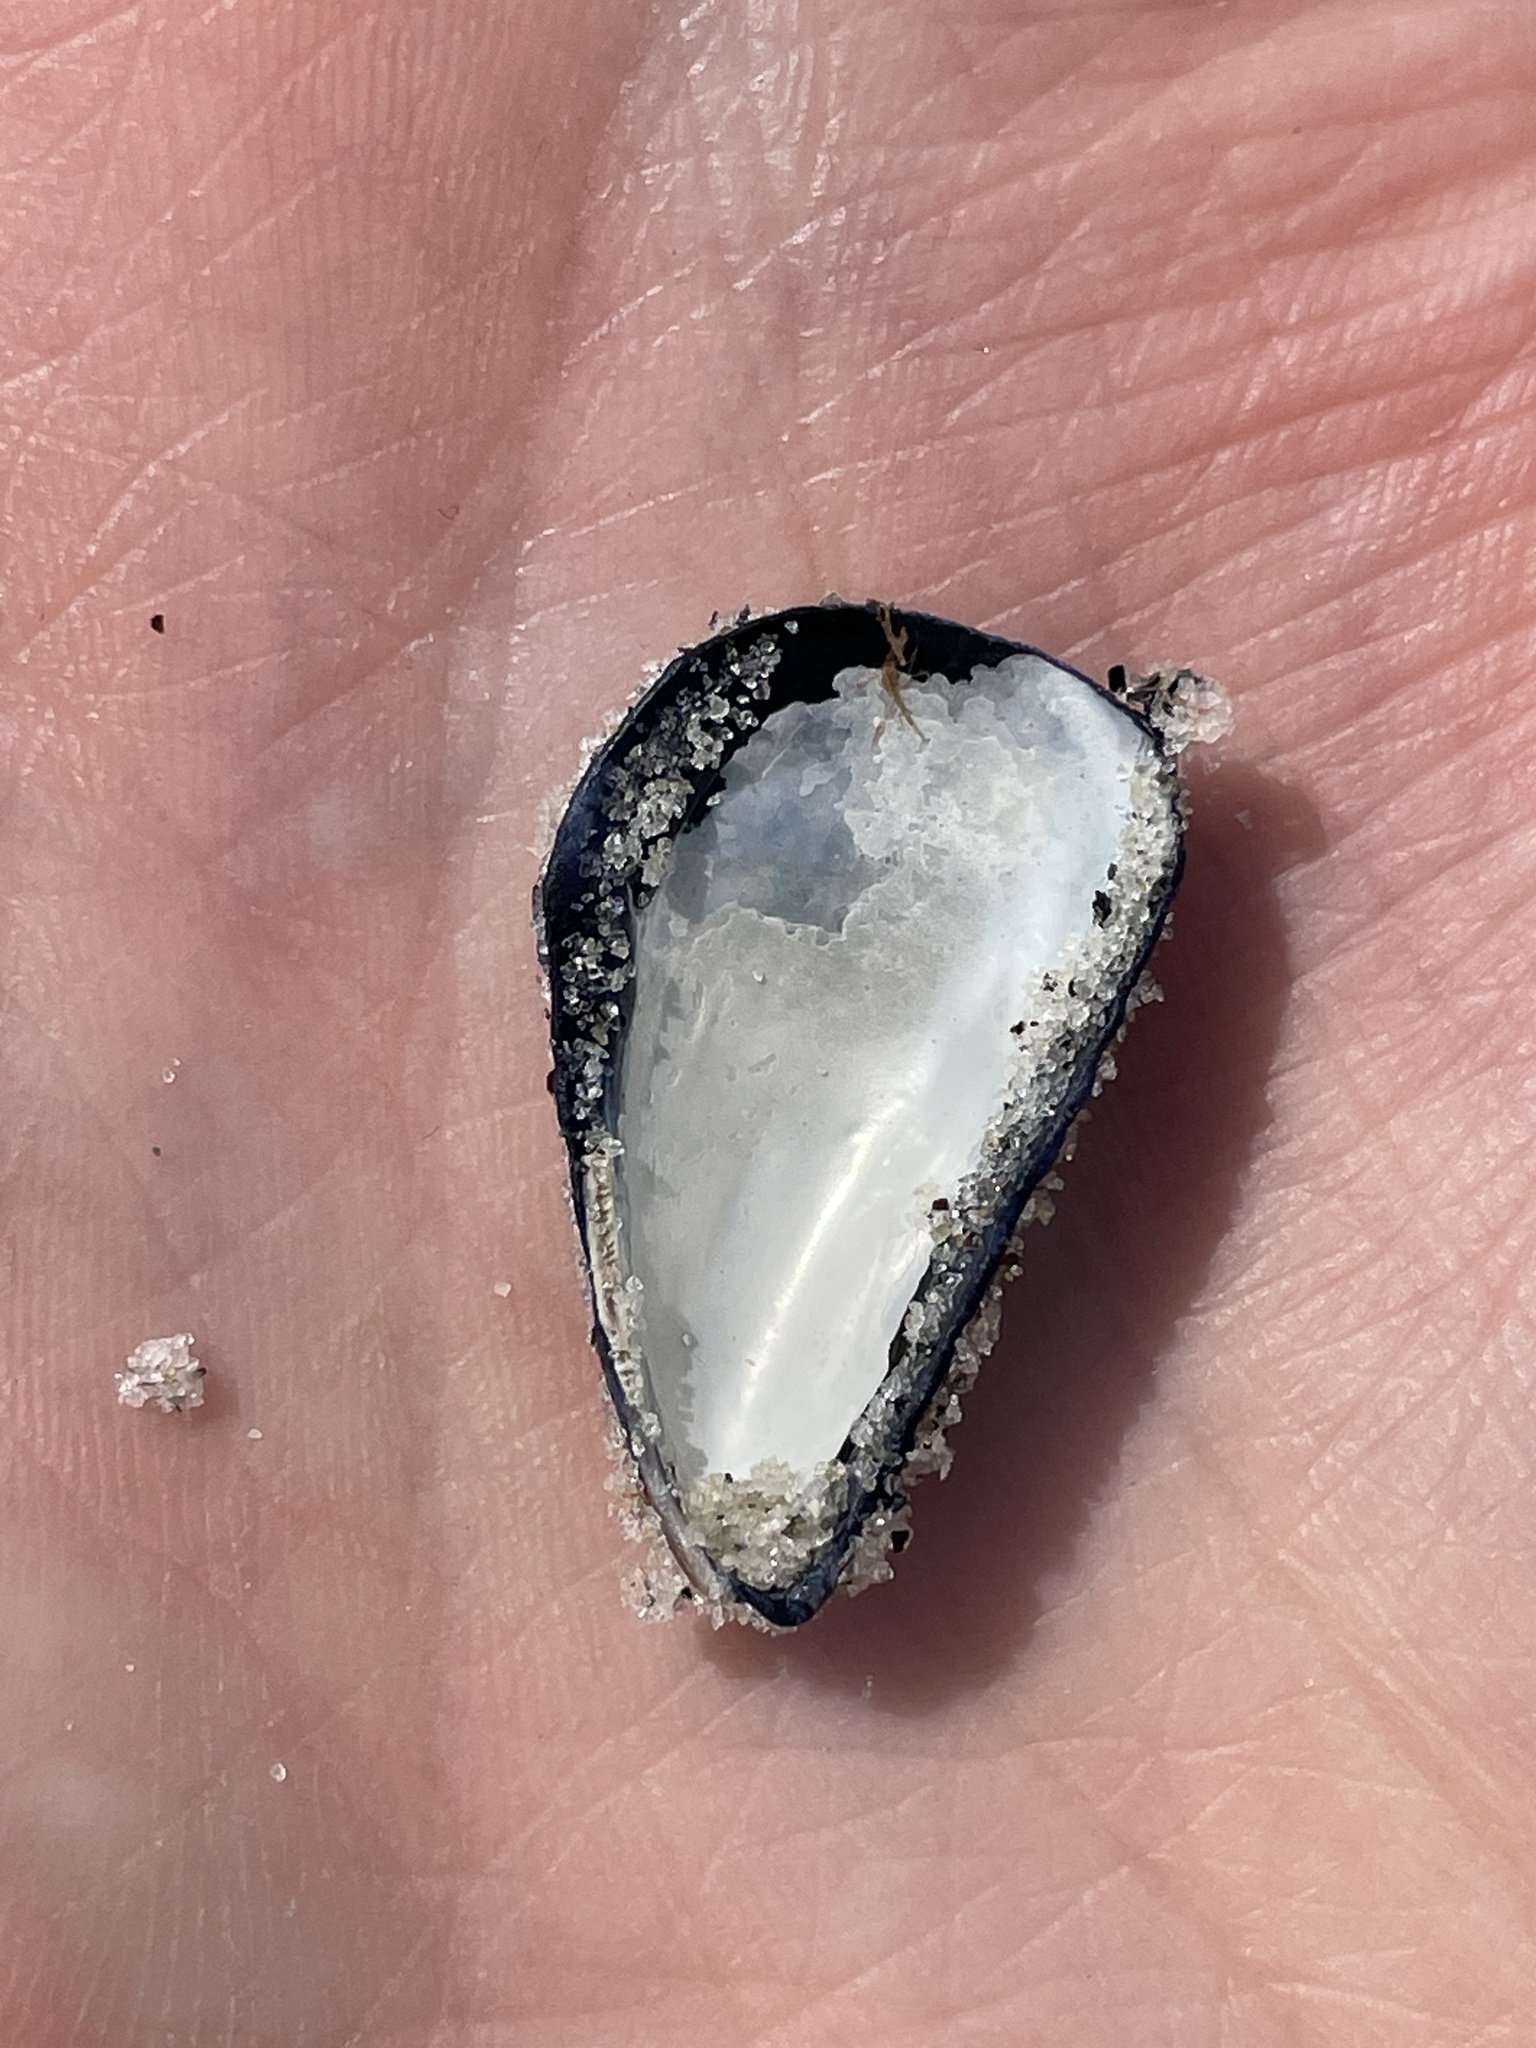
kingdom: Animalia
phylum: Mollusca
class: Bivalvia
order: Mytilida
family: Mytilidae
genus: Mytilus
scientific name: Mytilus edulis
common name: Blue mussel
